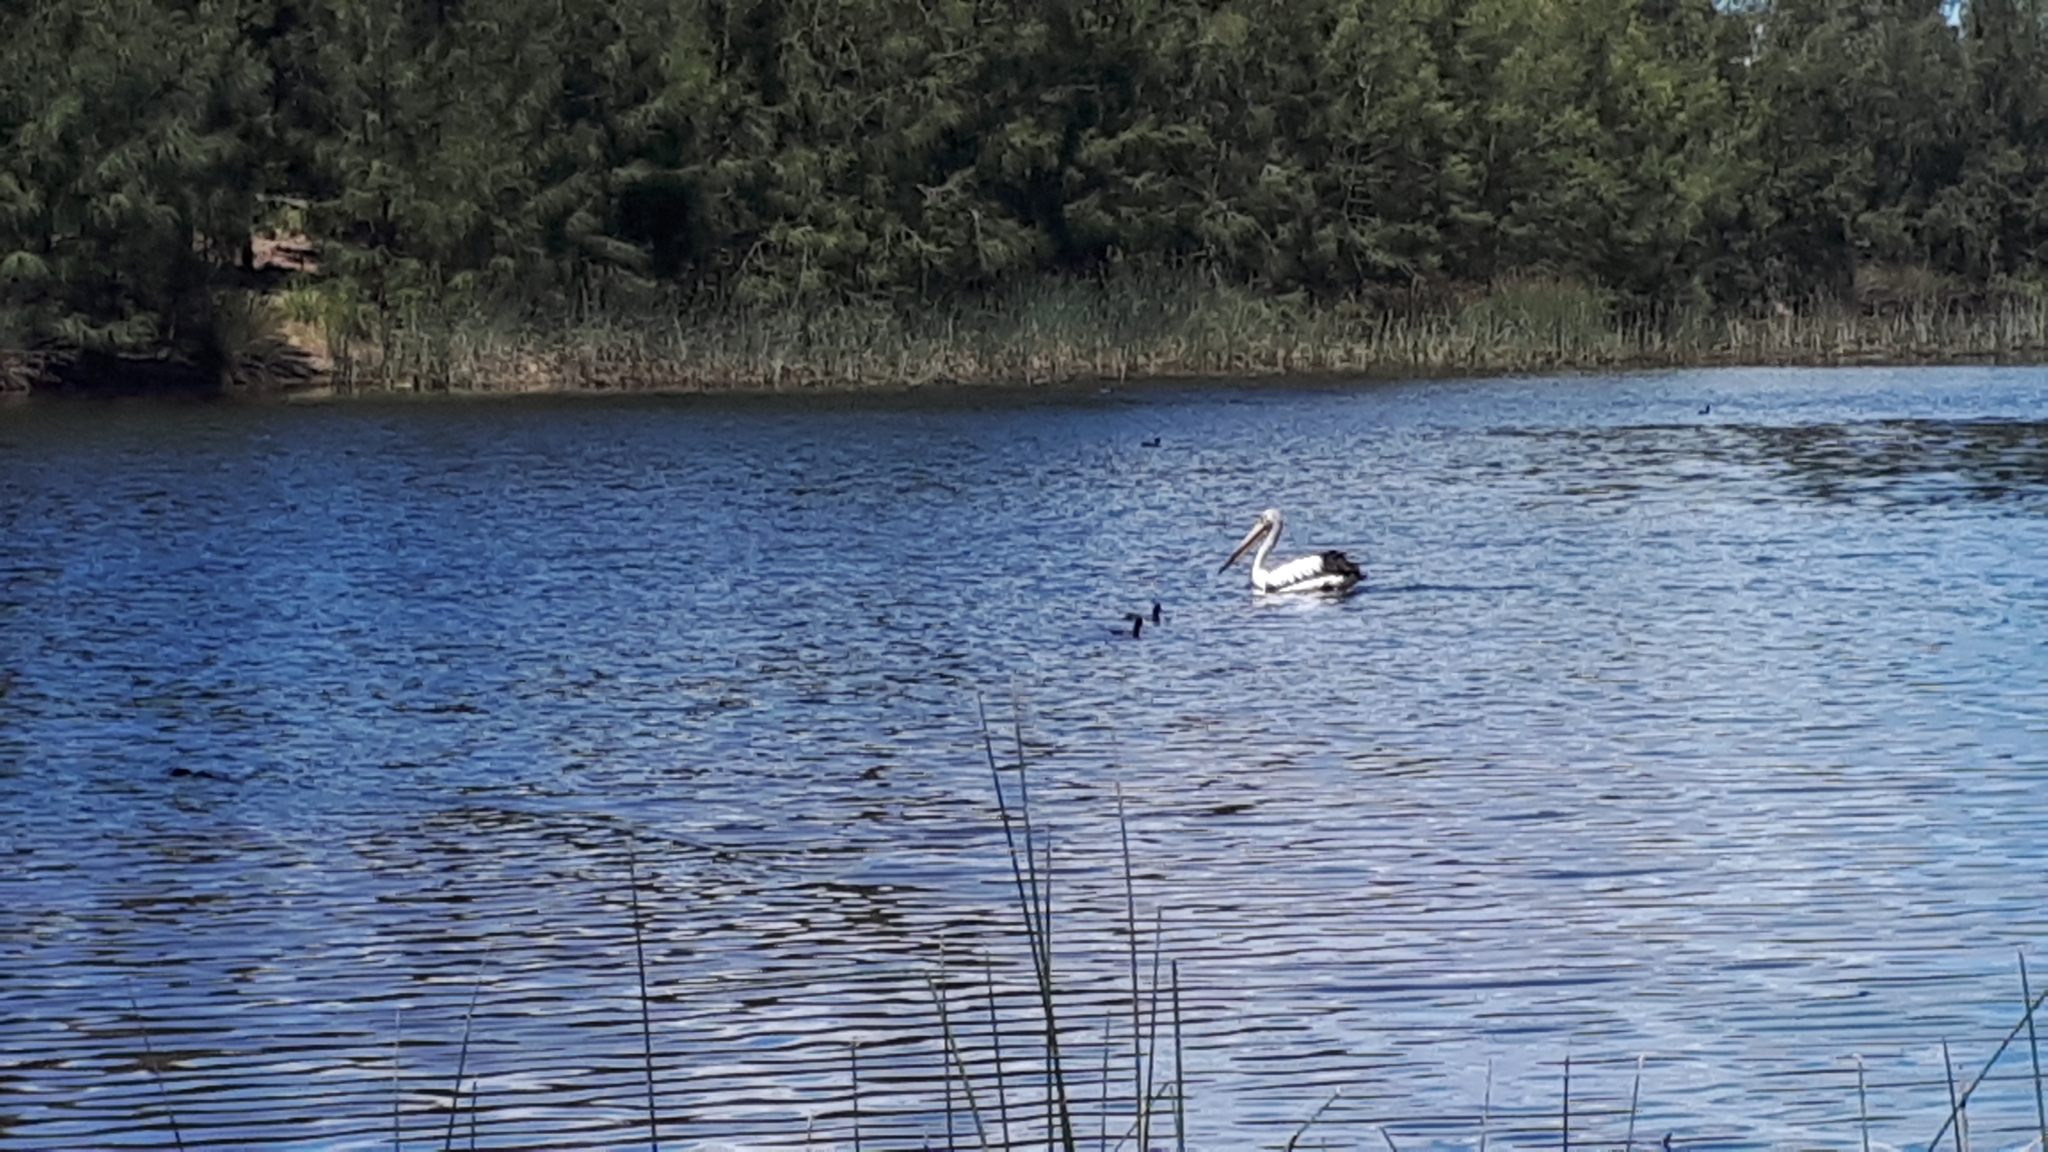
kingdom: Animalia
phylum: Chordata
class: Aves
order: Pelecaniformes
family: Pelecanidae
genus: Pelecanus
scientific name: Pelecanus conspicillatus
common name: Australian pelican
